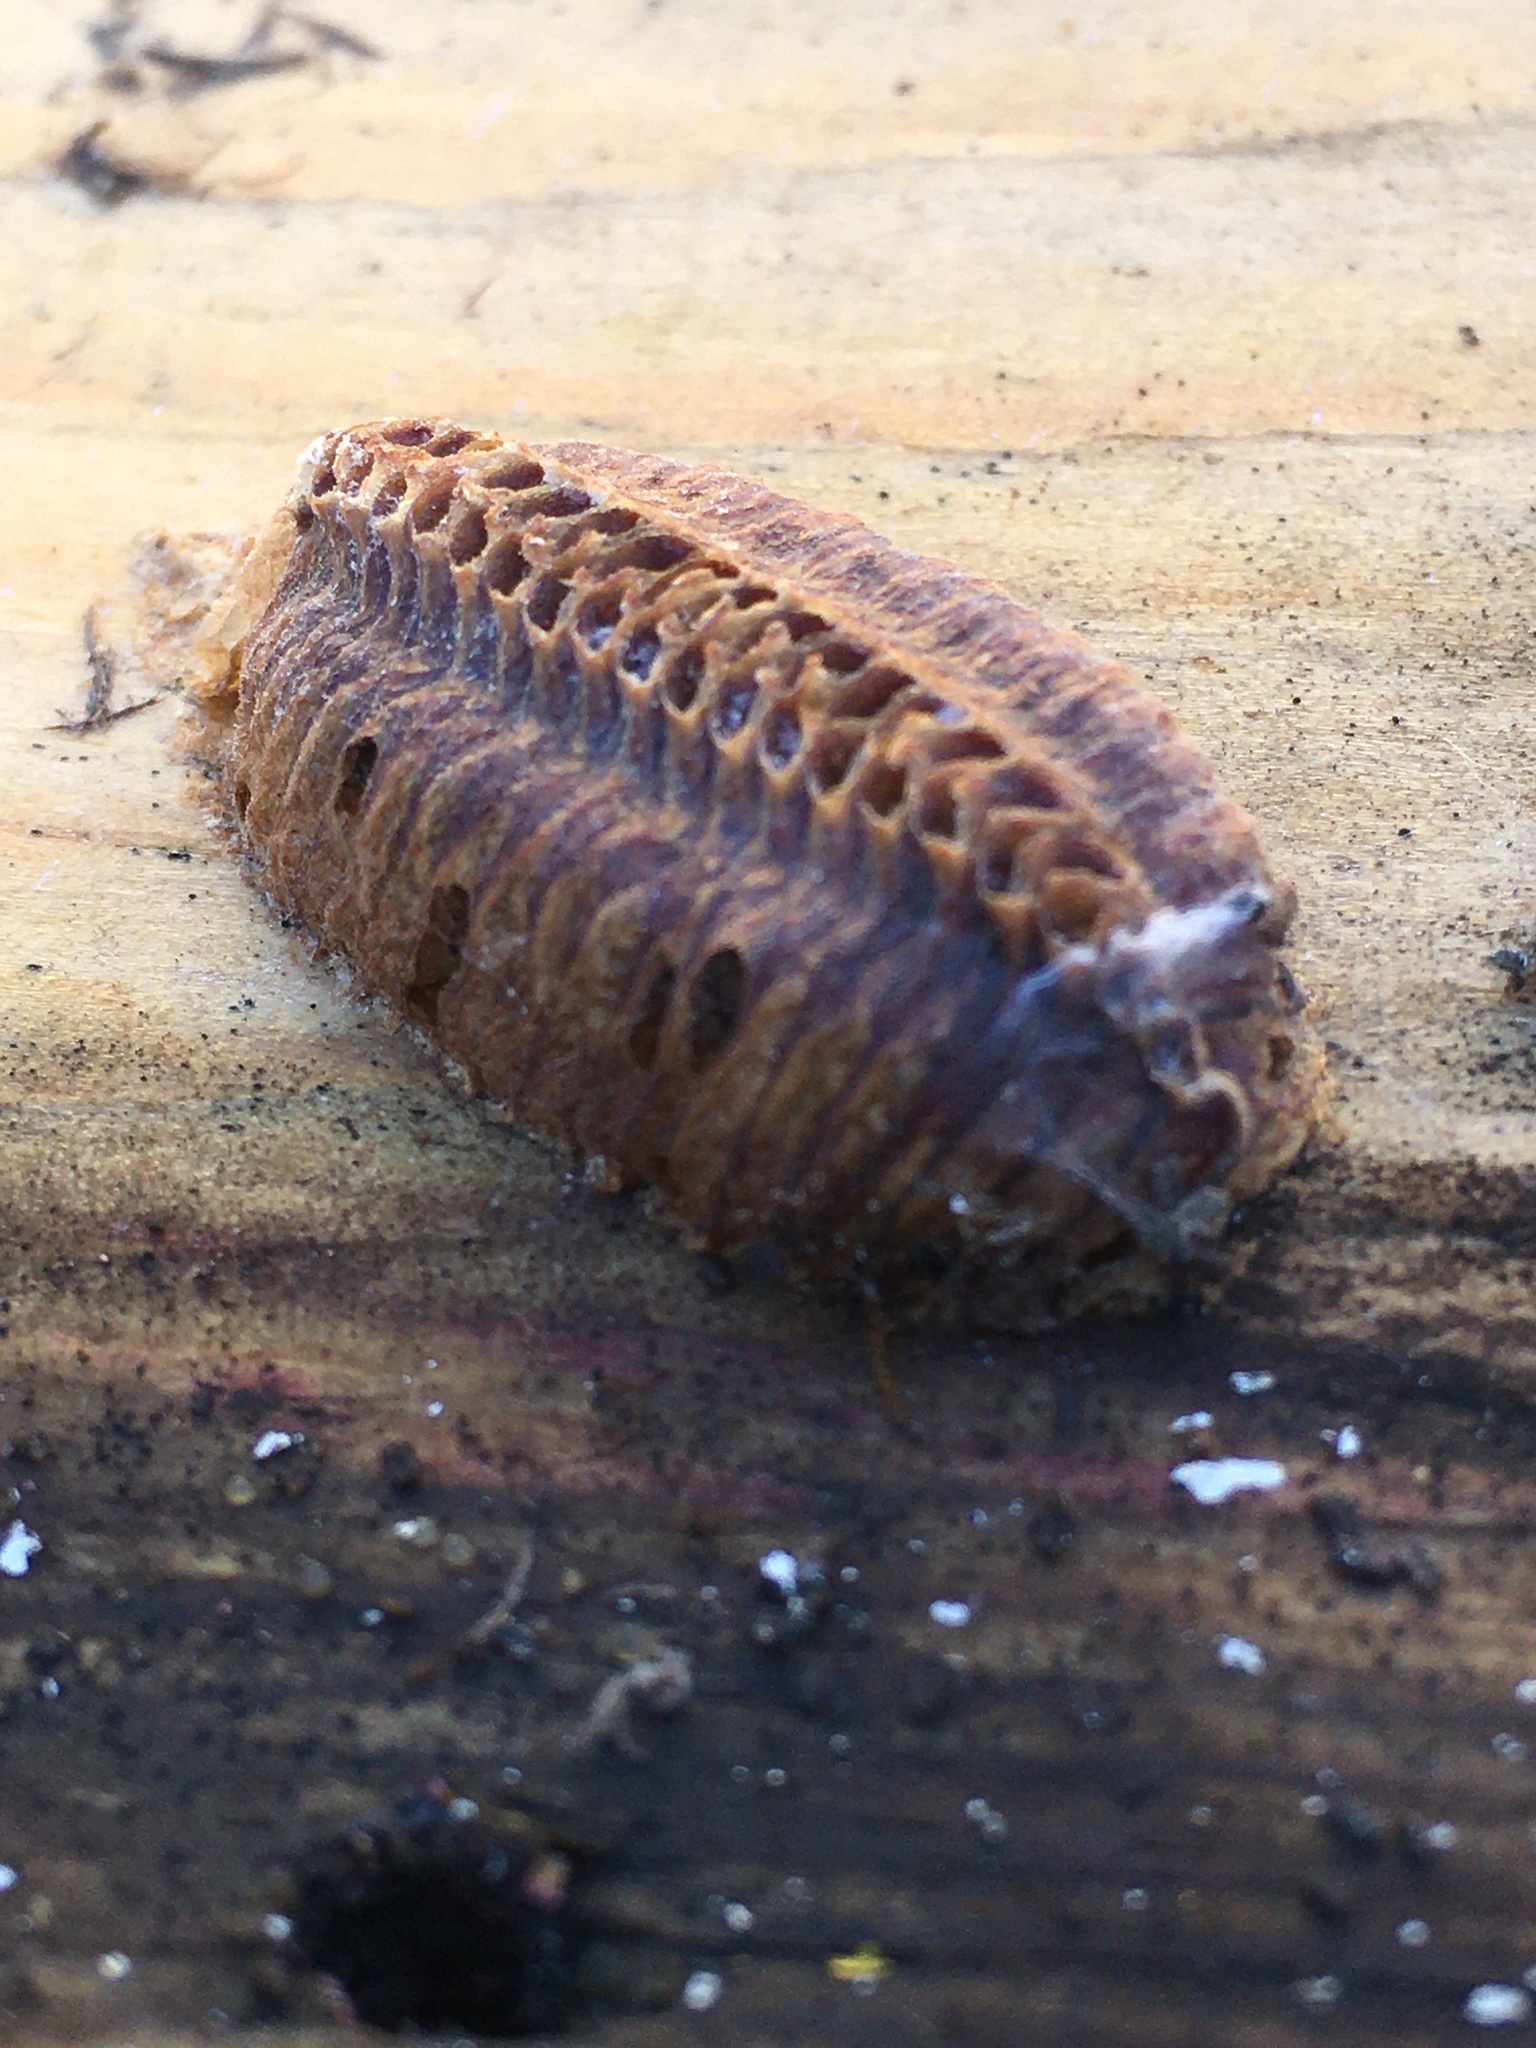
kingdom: Animalia
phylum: Arthropoda
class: Insecta
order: Mantodea
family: Mantidae
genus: Stagmomantis
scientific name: Stagmomantis carolina
